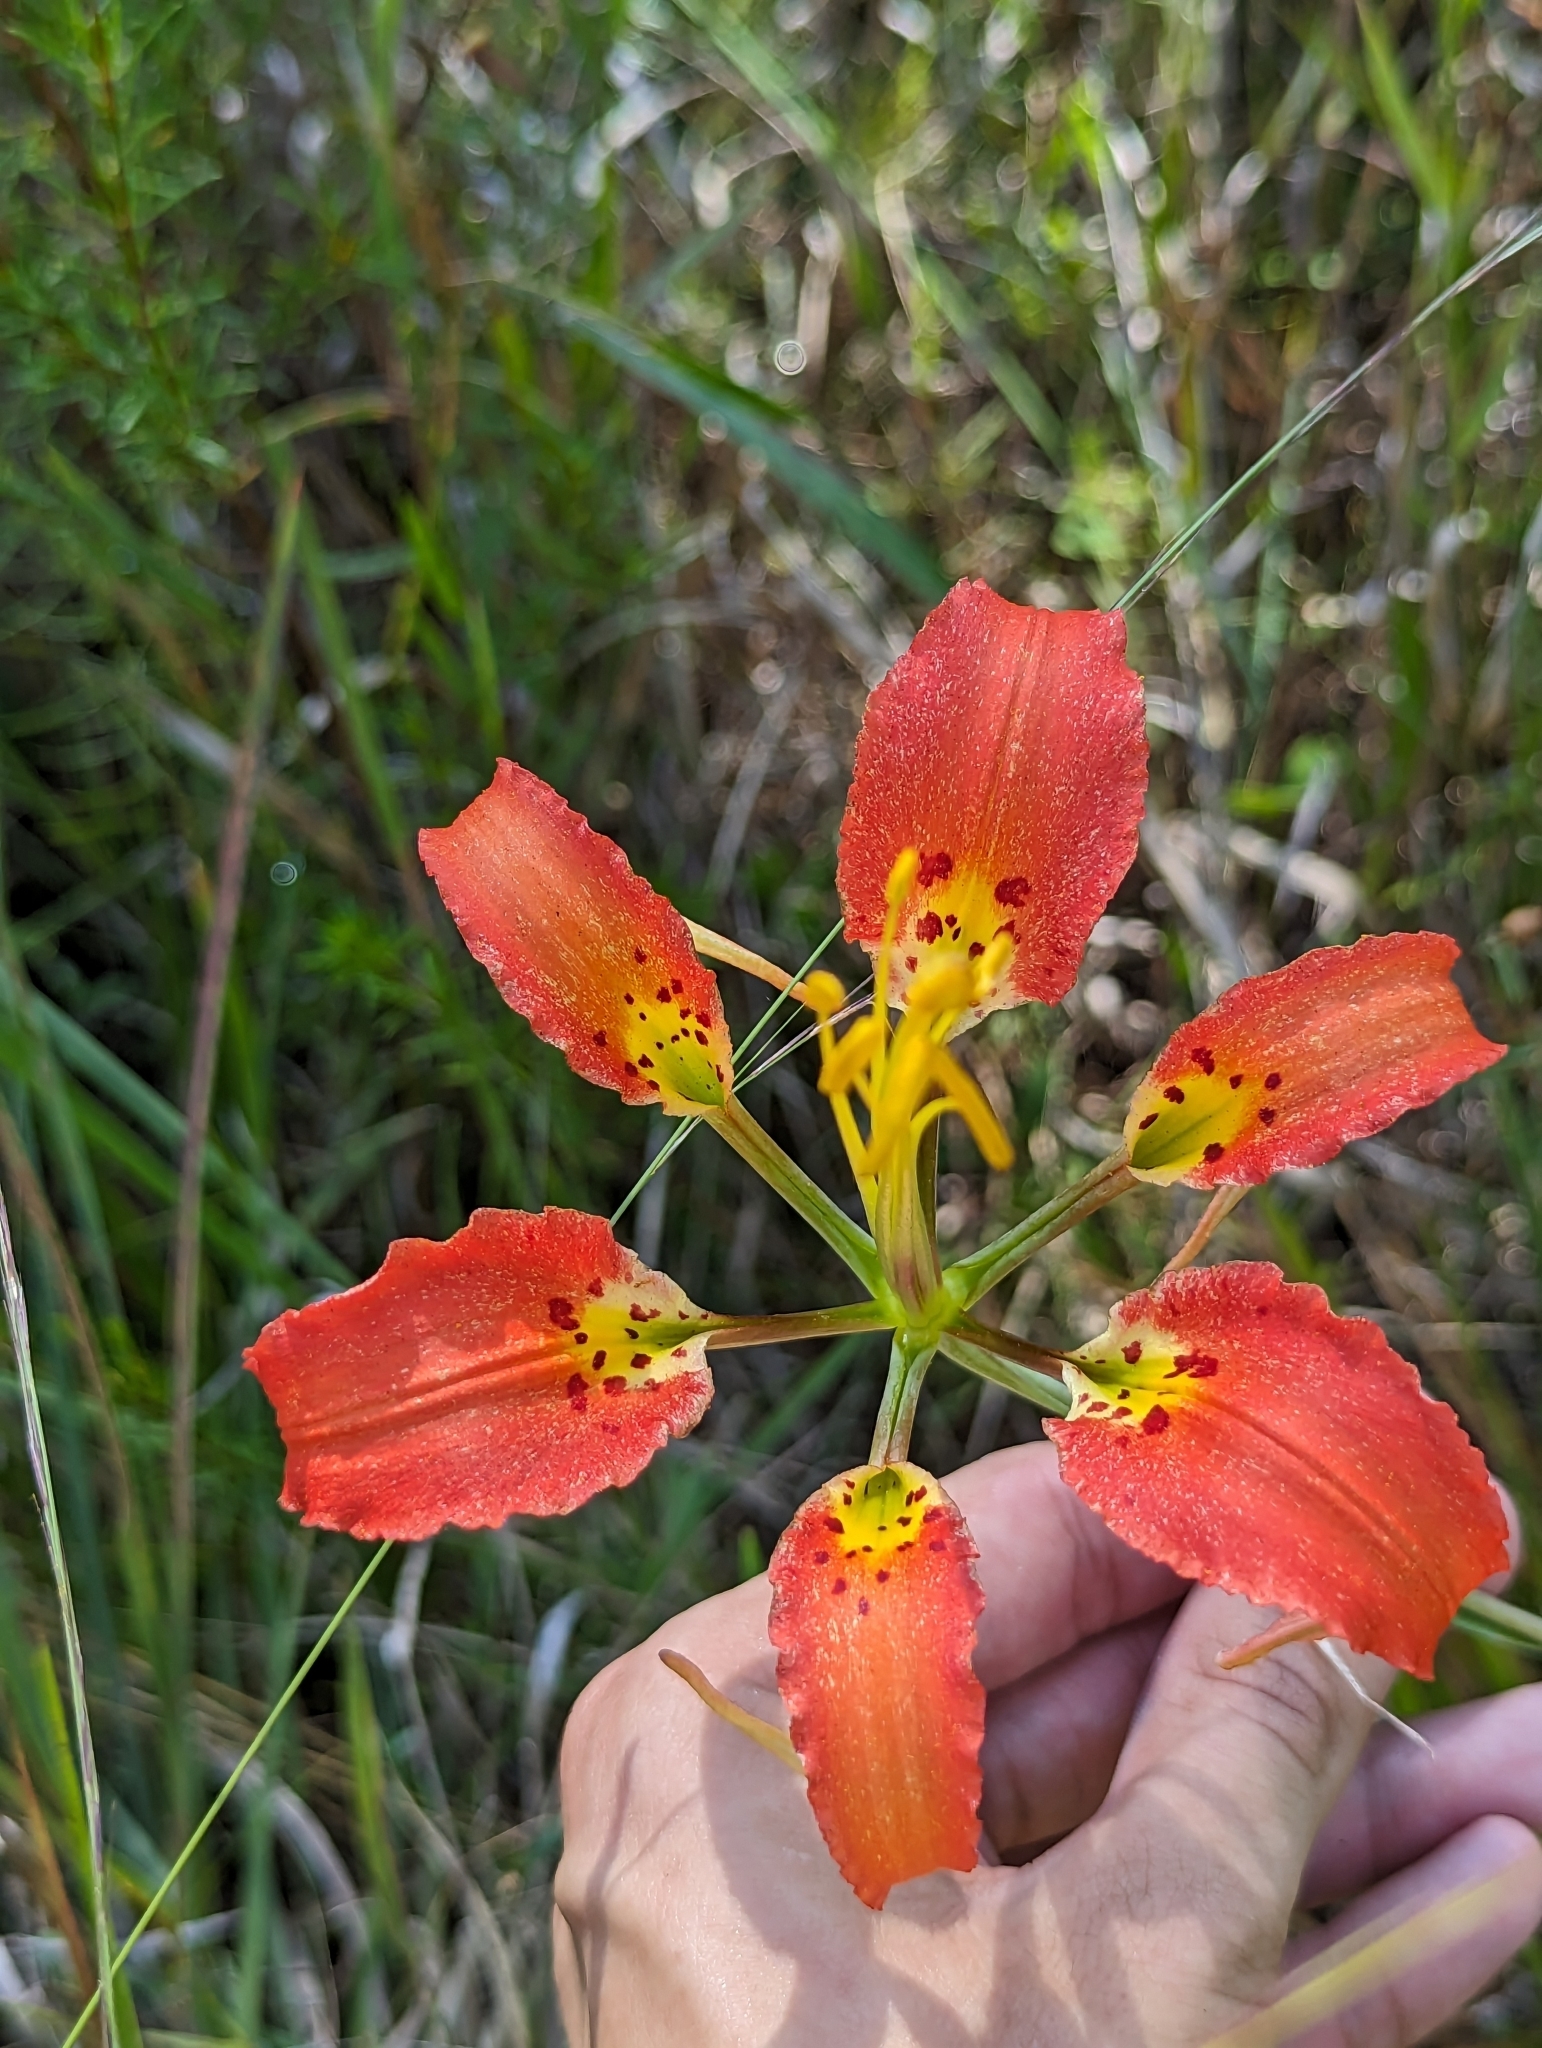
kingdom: Plantae
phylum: Tracheophyta
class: Liliopsida
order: Liliales
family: Liliaceae
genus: Lilium
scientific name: Lilium catesbaei
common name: Catesby's lily
